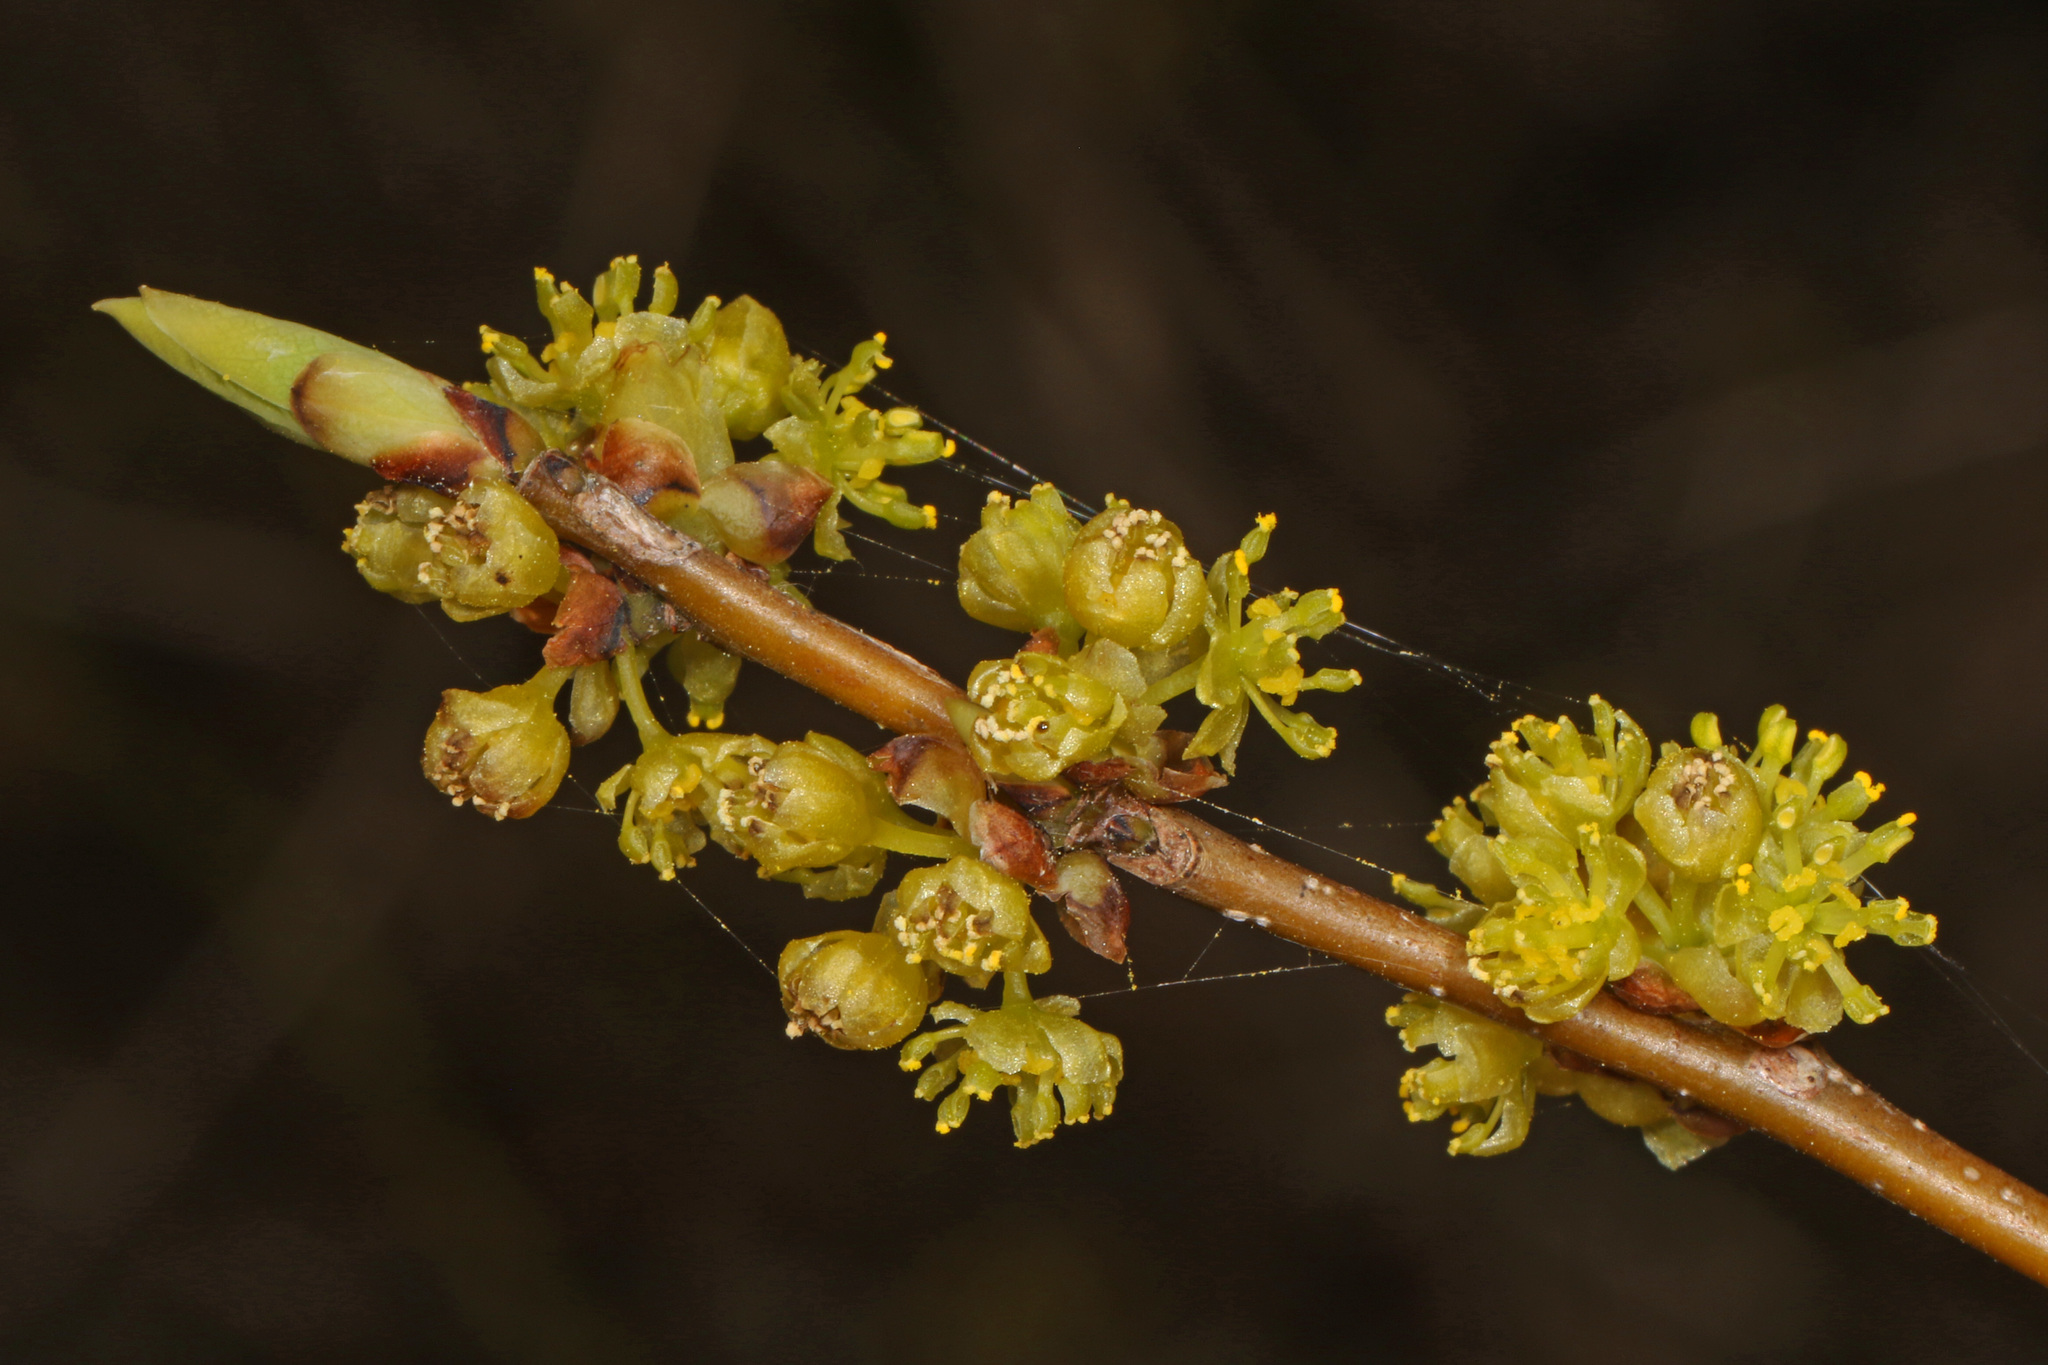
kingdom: Plantae
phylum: Tracheophyta
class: Magnoliopsida
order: Laurales
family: Lauraceae
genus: Lindera
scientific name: Lindera benzoin
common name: Spicebush
